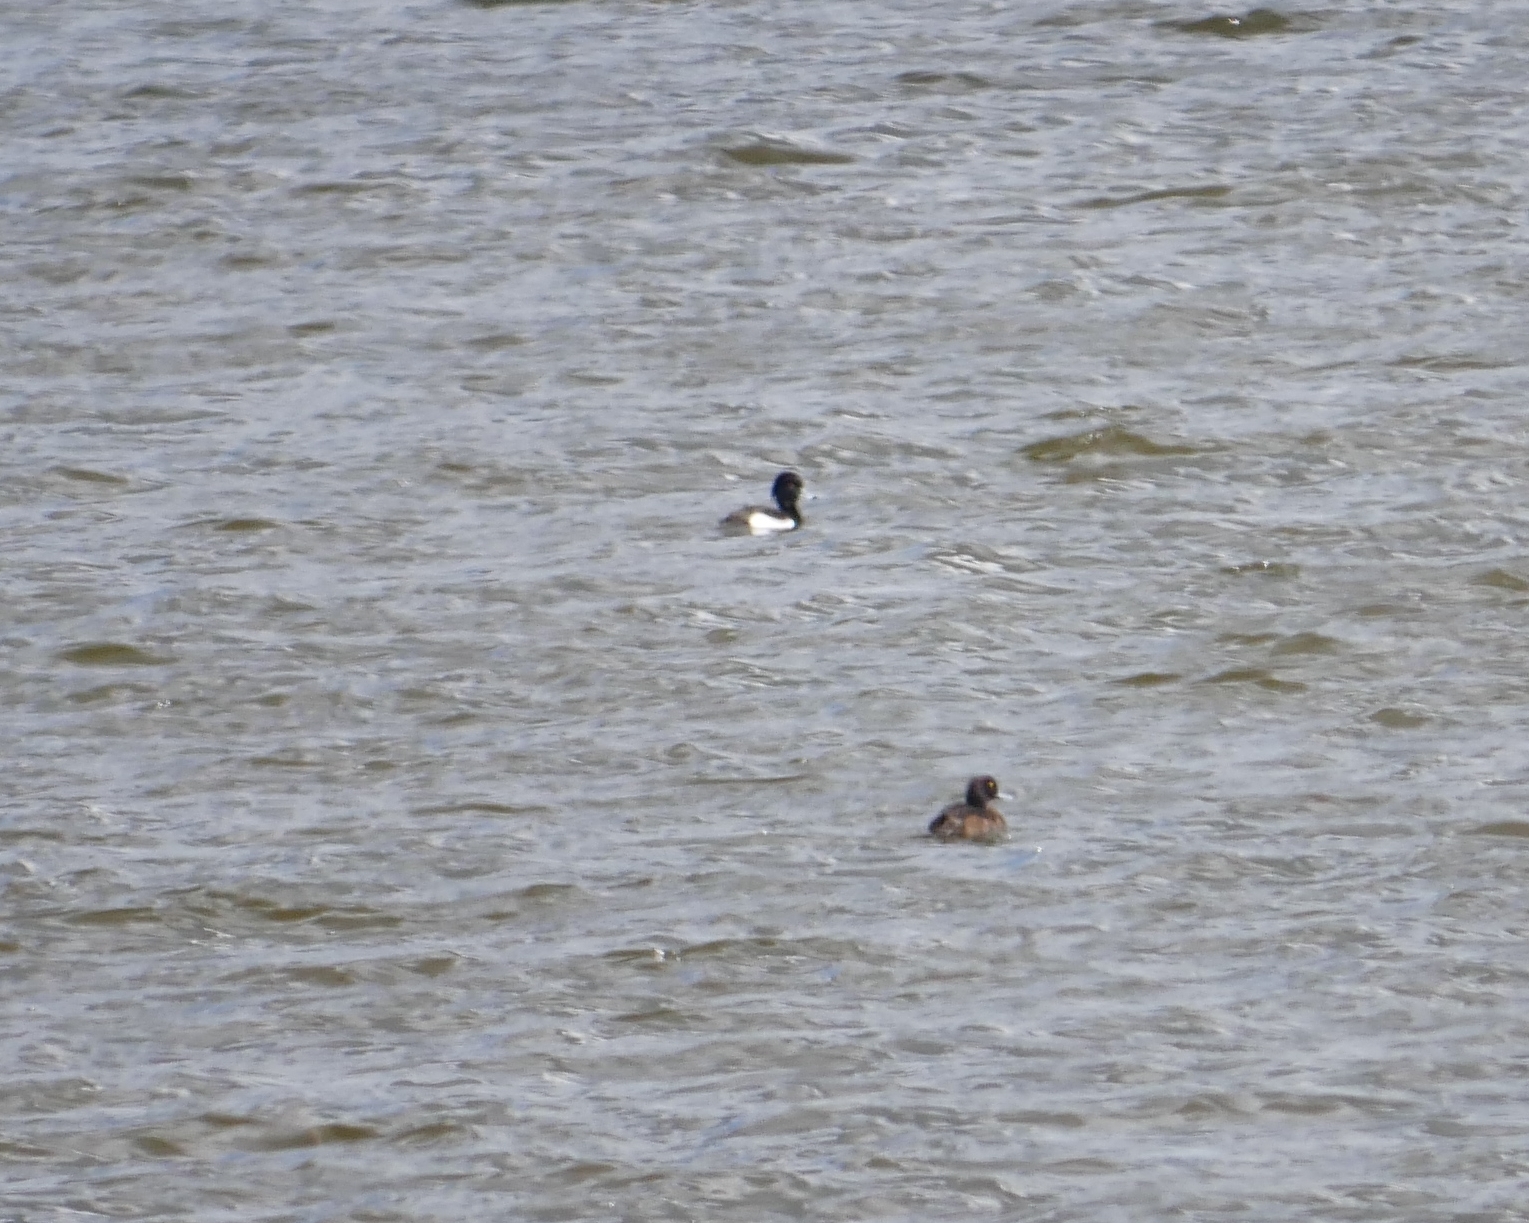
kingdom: Animalia
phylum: Chordata
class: Aves
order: Anseriformes
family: Anatidae
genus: Aythya
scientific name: Aythya fuligula
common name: Tufted duck
